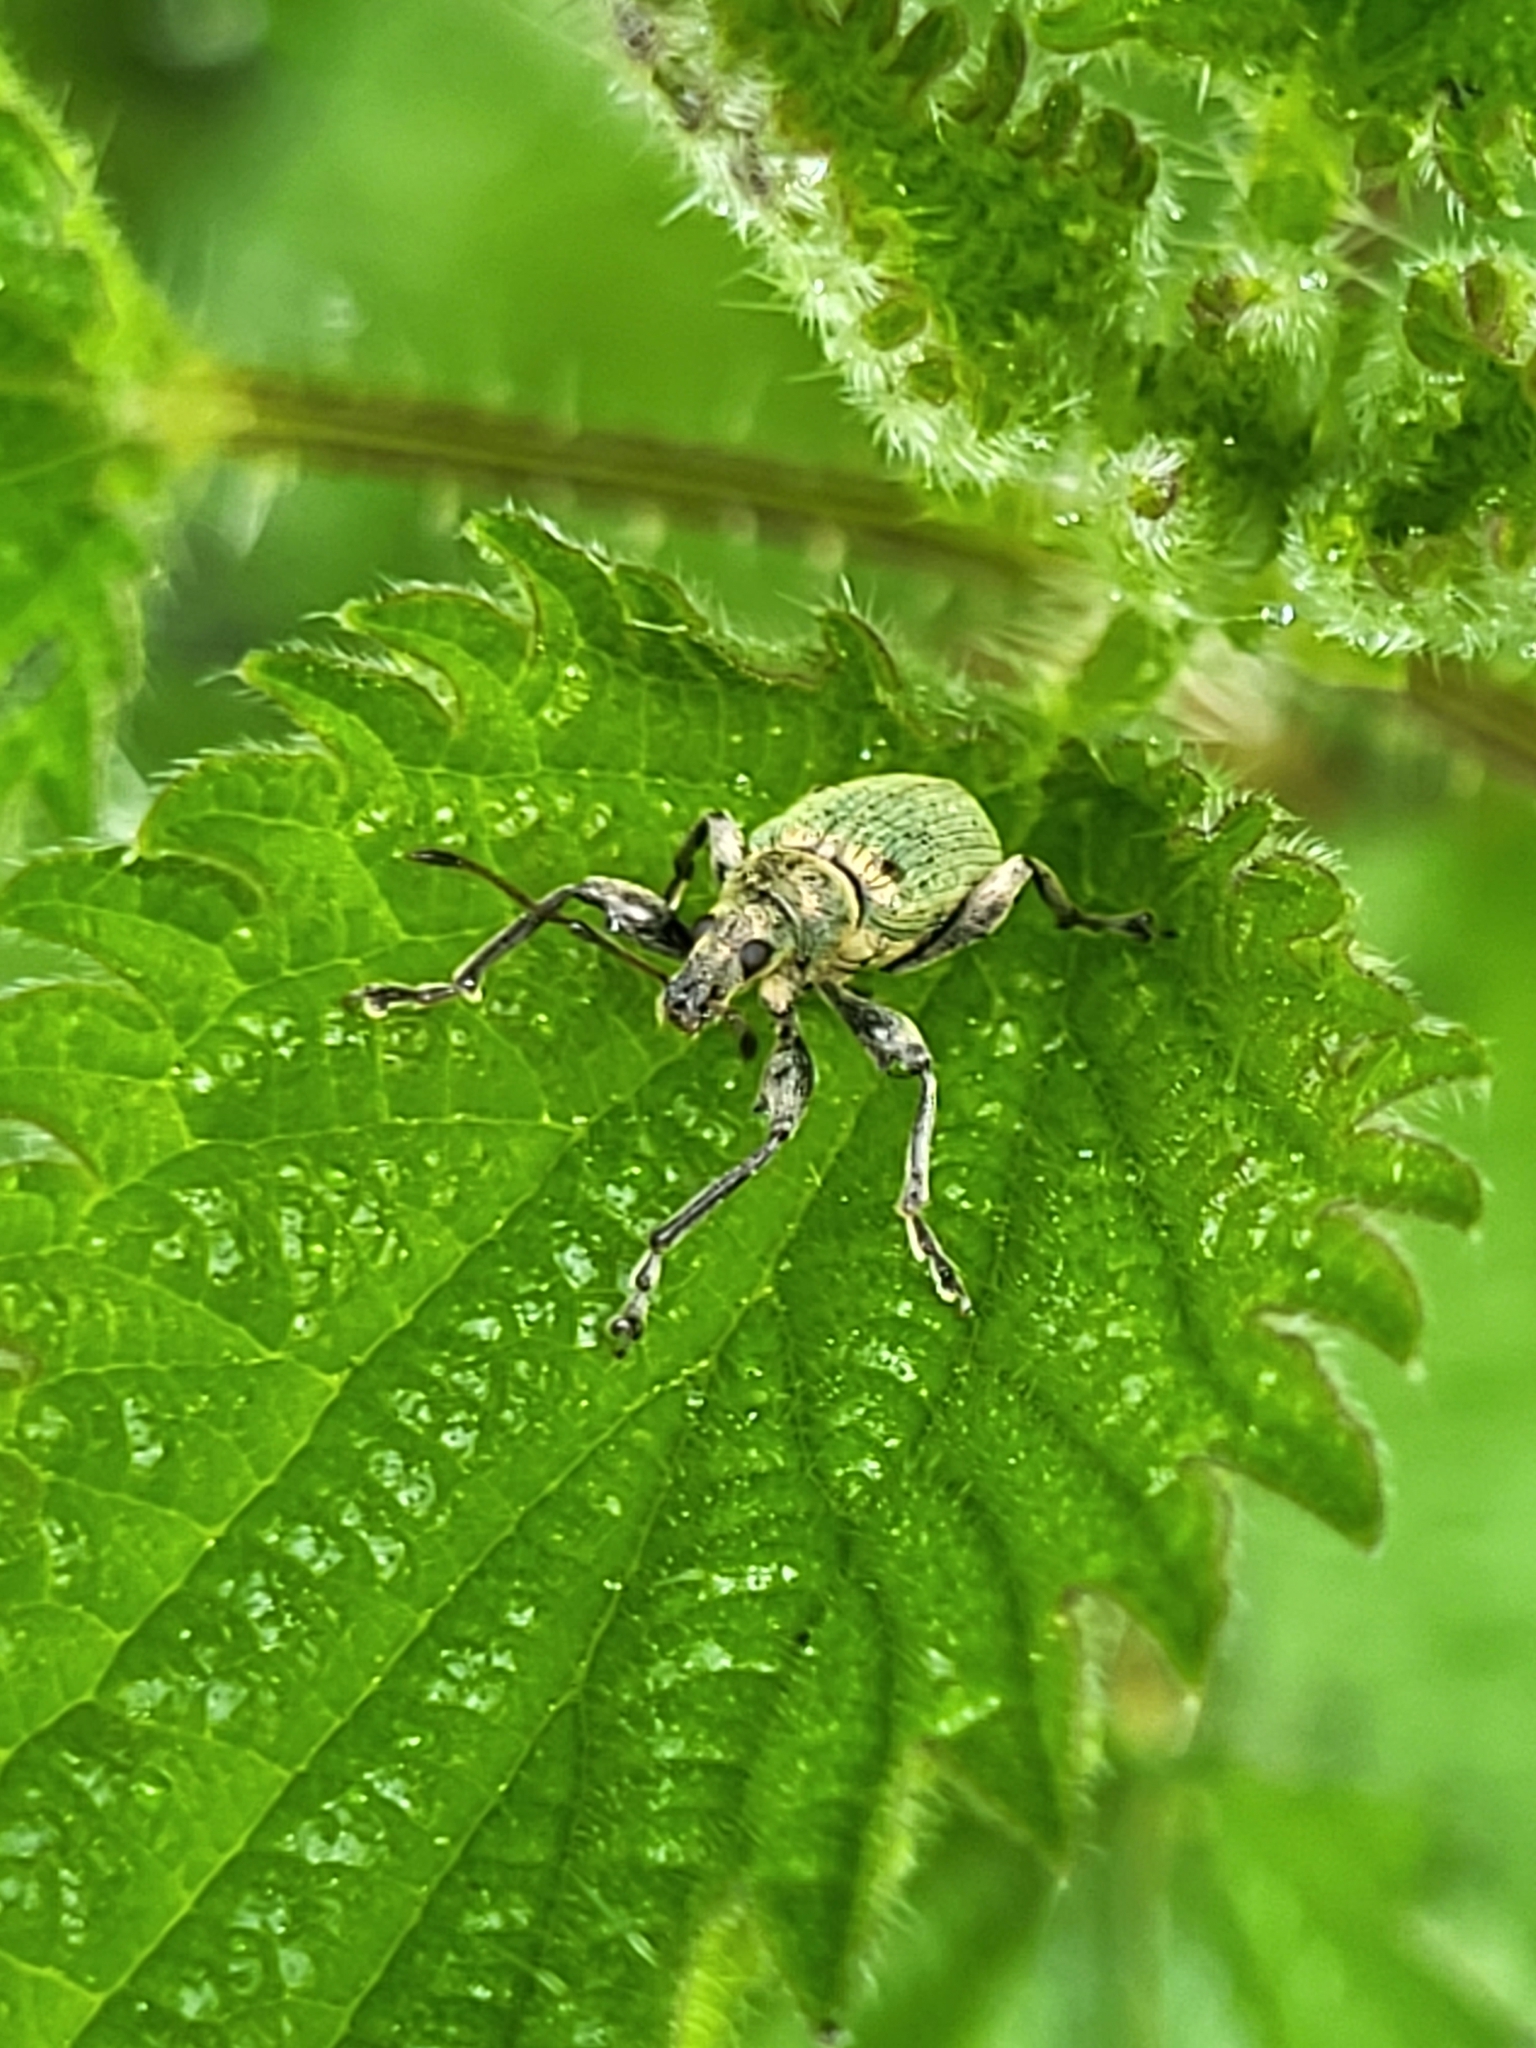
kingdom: Animalia
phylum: Arthropoda
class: Insecta
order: Coleoptera
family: Curculionidae
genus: Phyllobius
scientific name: Phyllobius pomaceus
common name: Green nettle weevil
